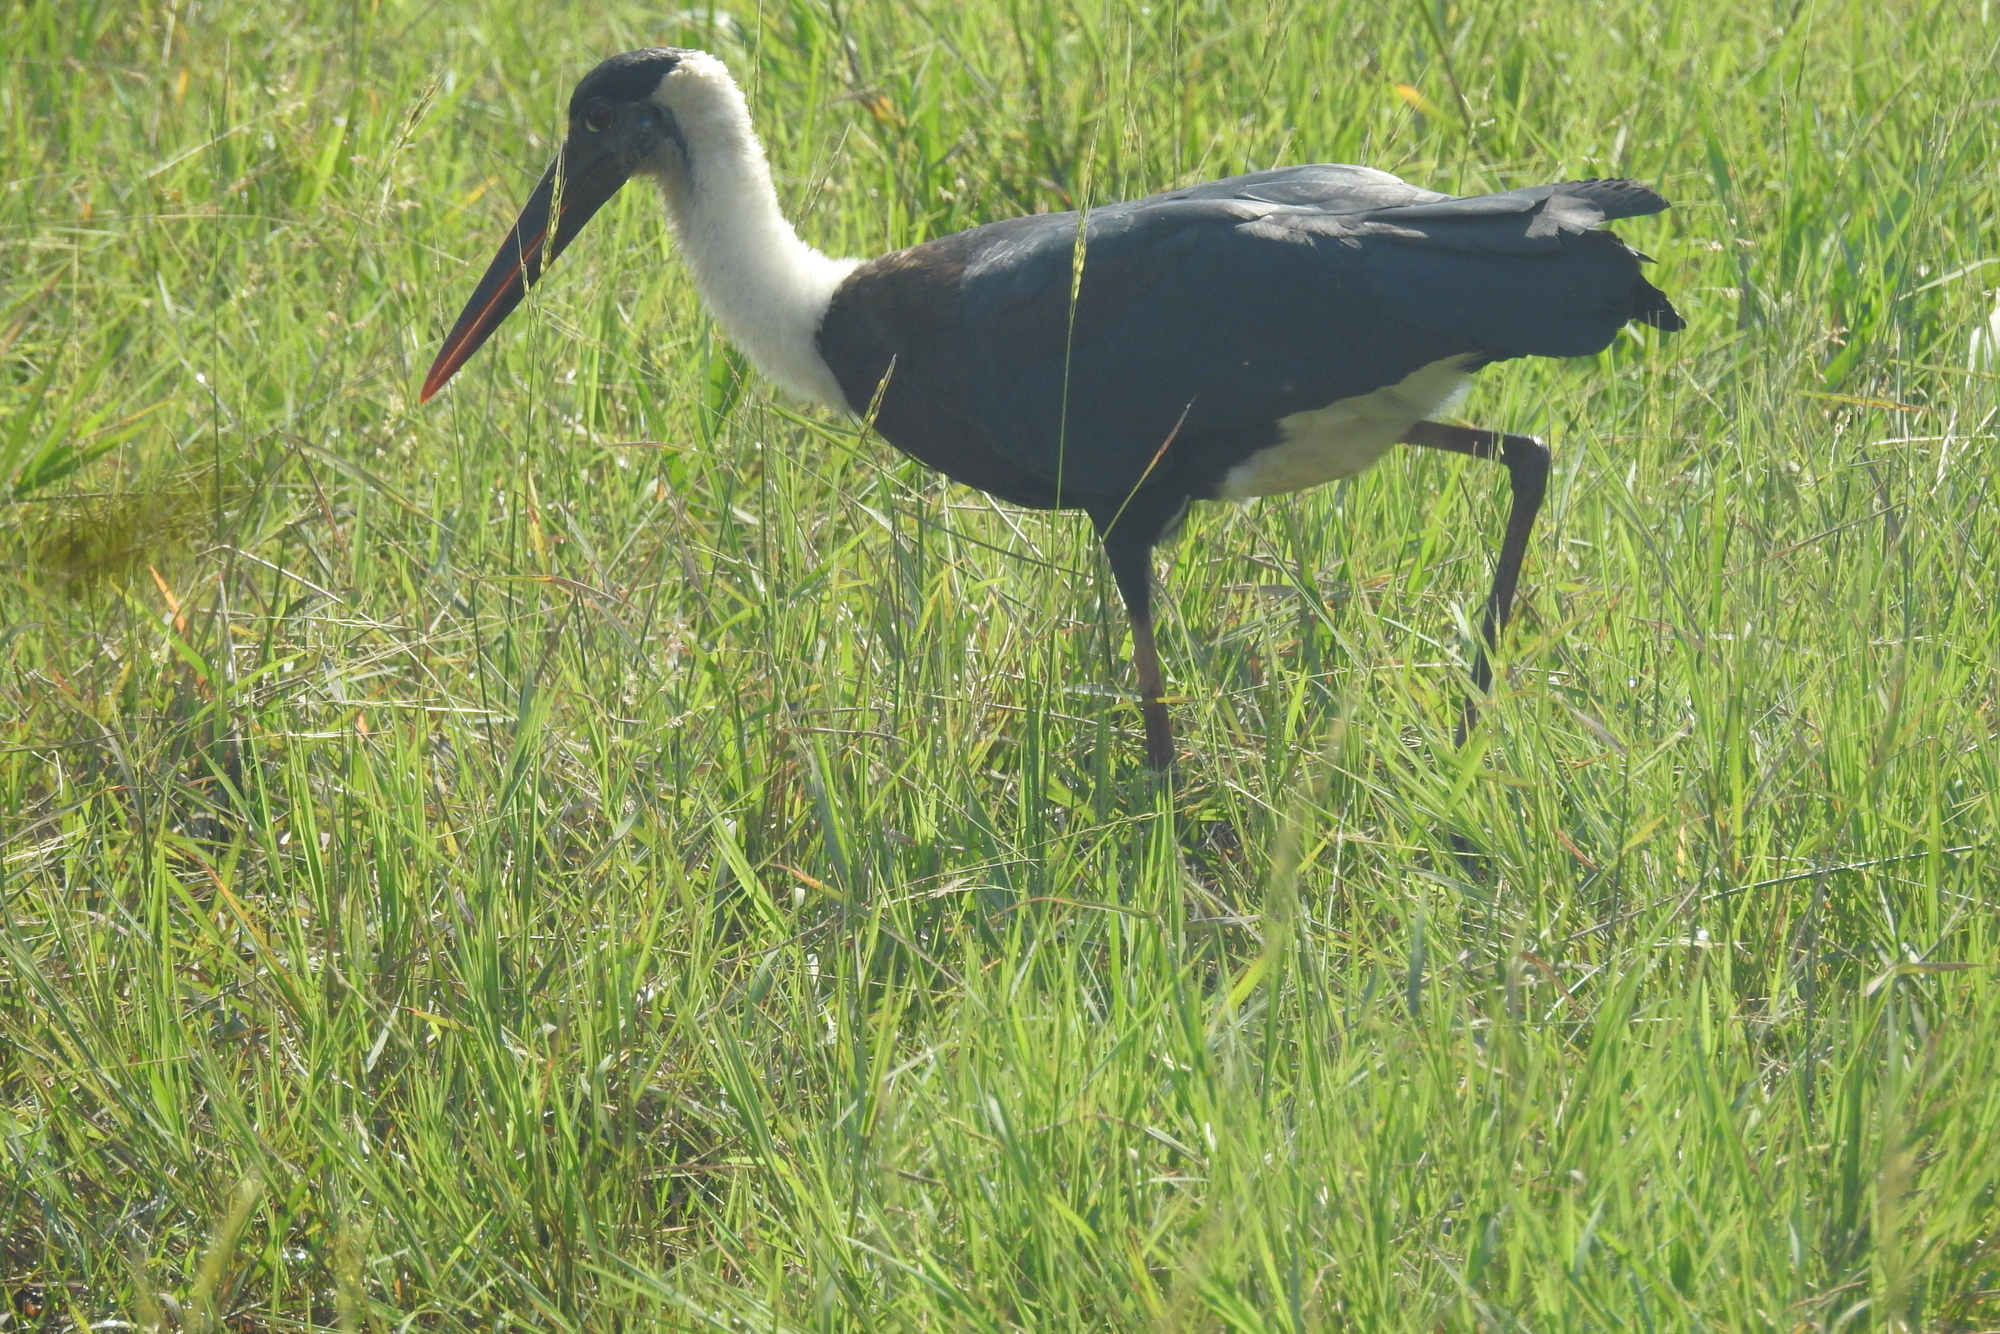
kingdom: Animalia
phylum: Chordata
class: Aves
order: Ciconiiformes
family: Ciconiidae
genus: Ciconia
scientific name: Ciconia episcopus
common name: Woolly-necked stork
